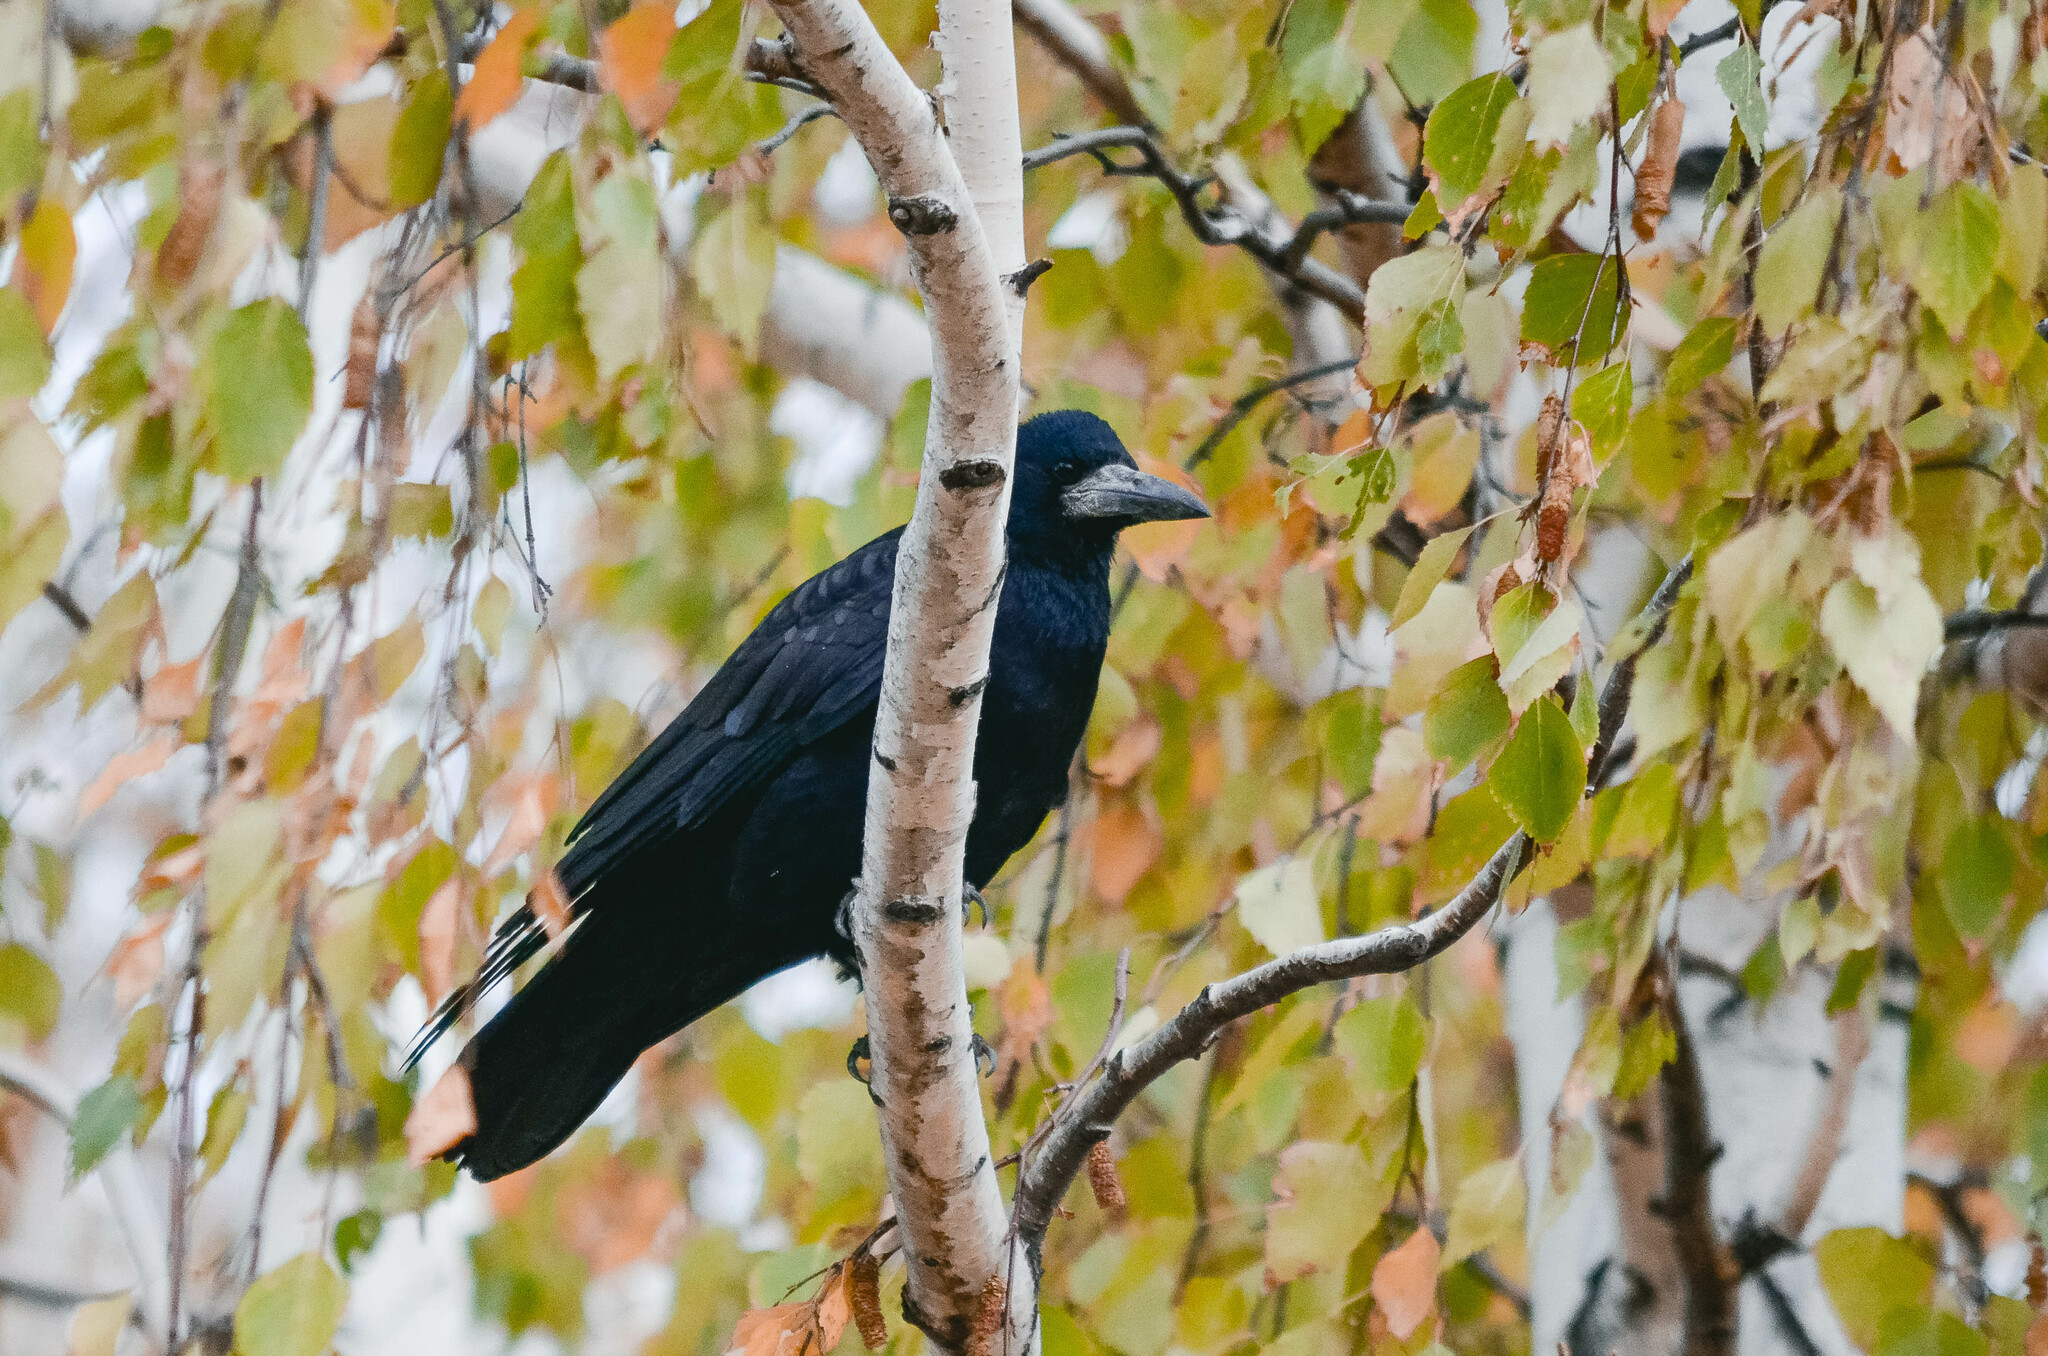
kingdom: Animalia
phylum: Chordata
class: Aves
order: Passeriformes
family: Corvidae
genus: Corvus
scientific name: Corvus frugilegus
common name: Rook
